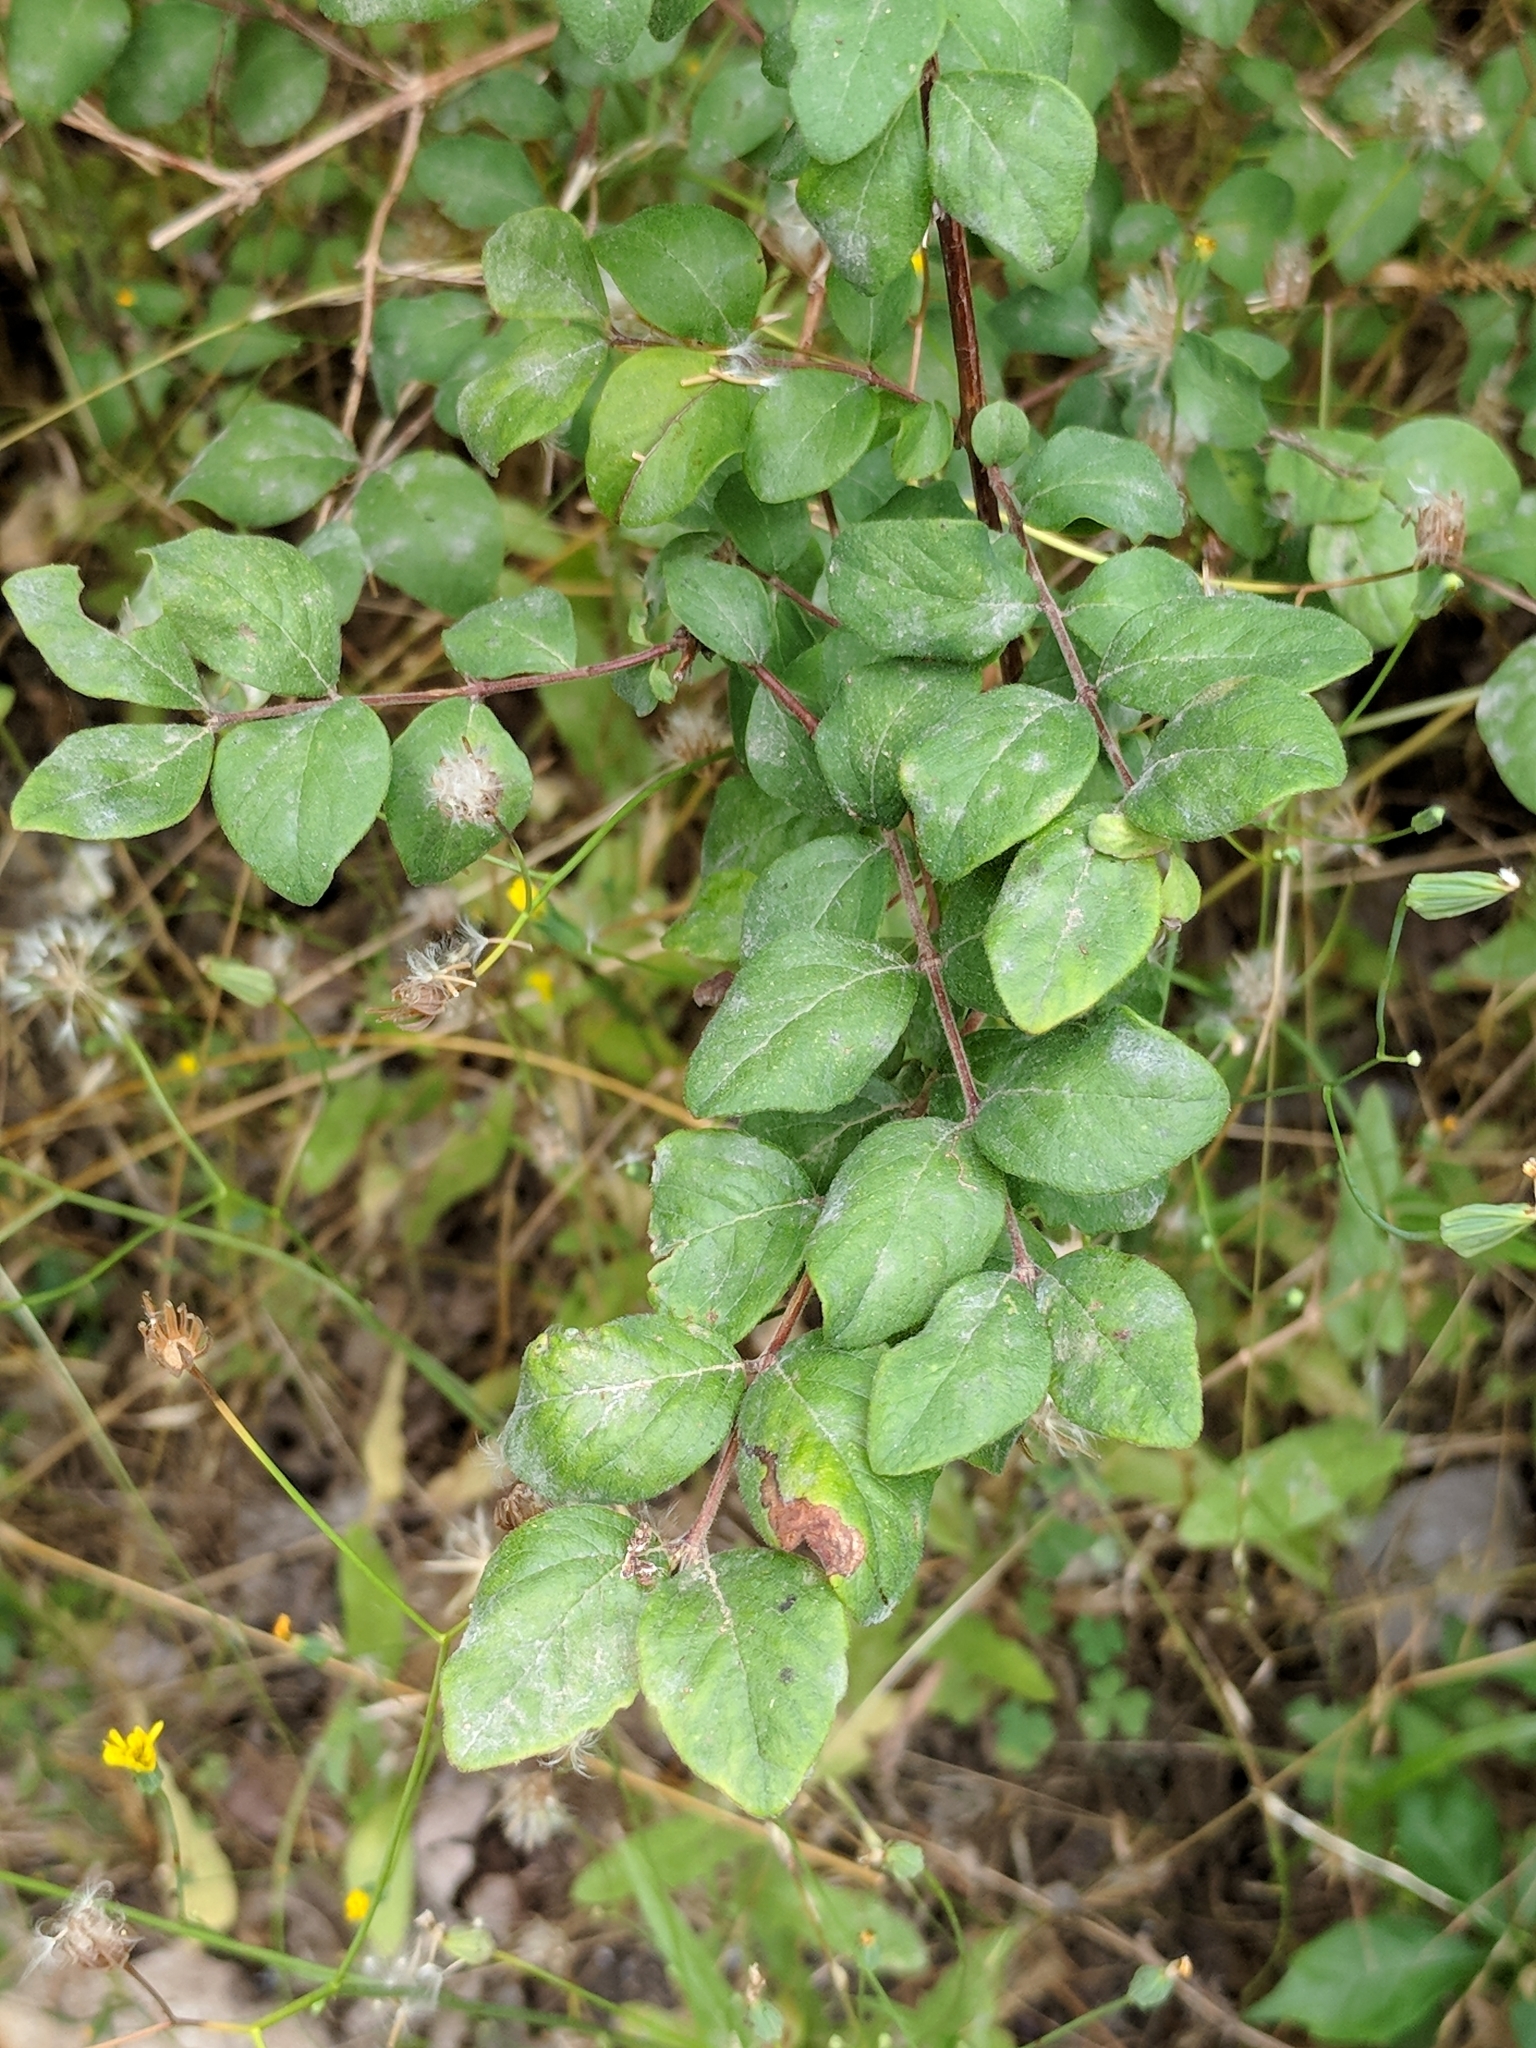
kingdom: Plantae
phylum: Tracheophyta
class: Magnoliopsida
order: Dipsacales
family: Caprifoliaceae
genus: Symphoricarpos
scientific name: Symphoricarpos orbiculatus
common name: Coralberry
